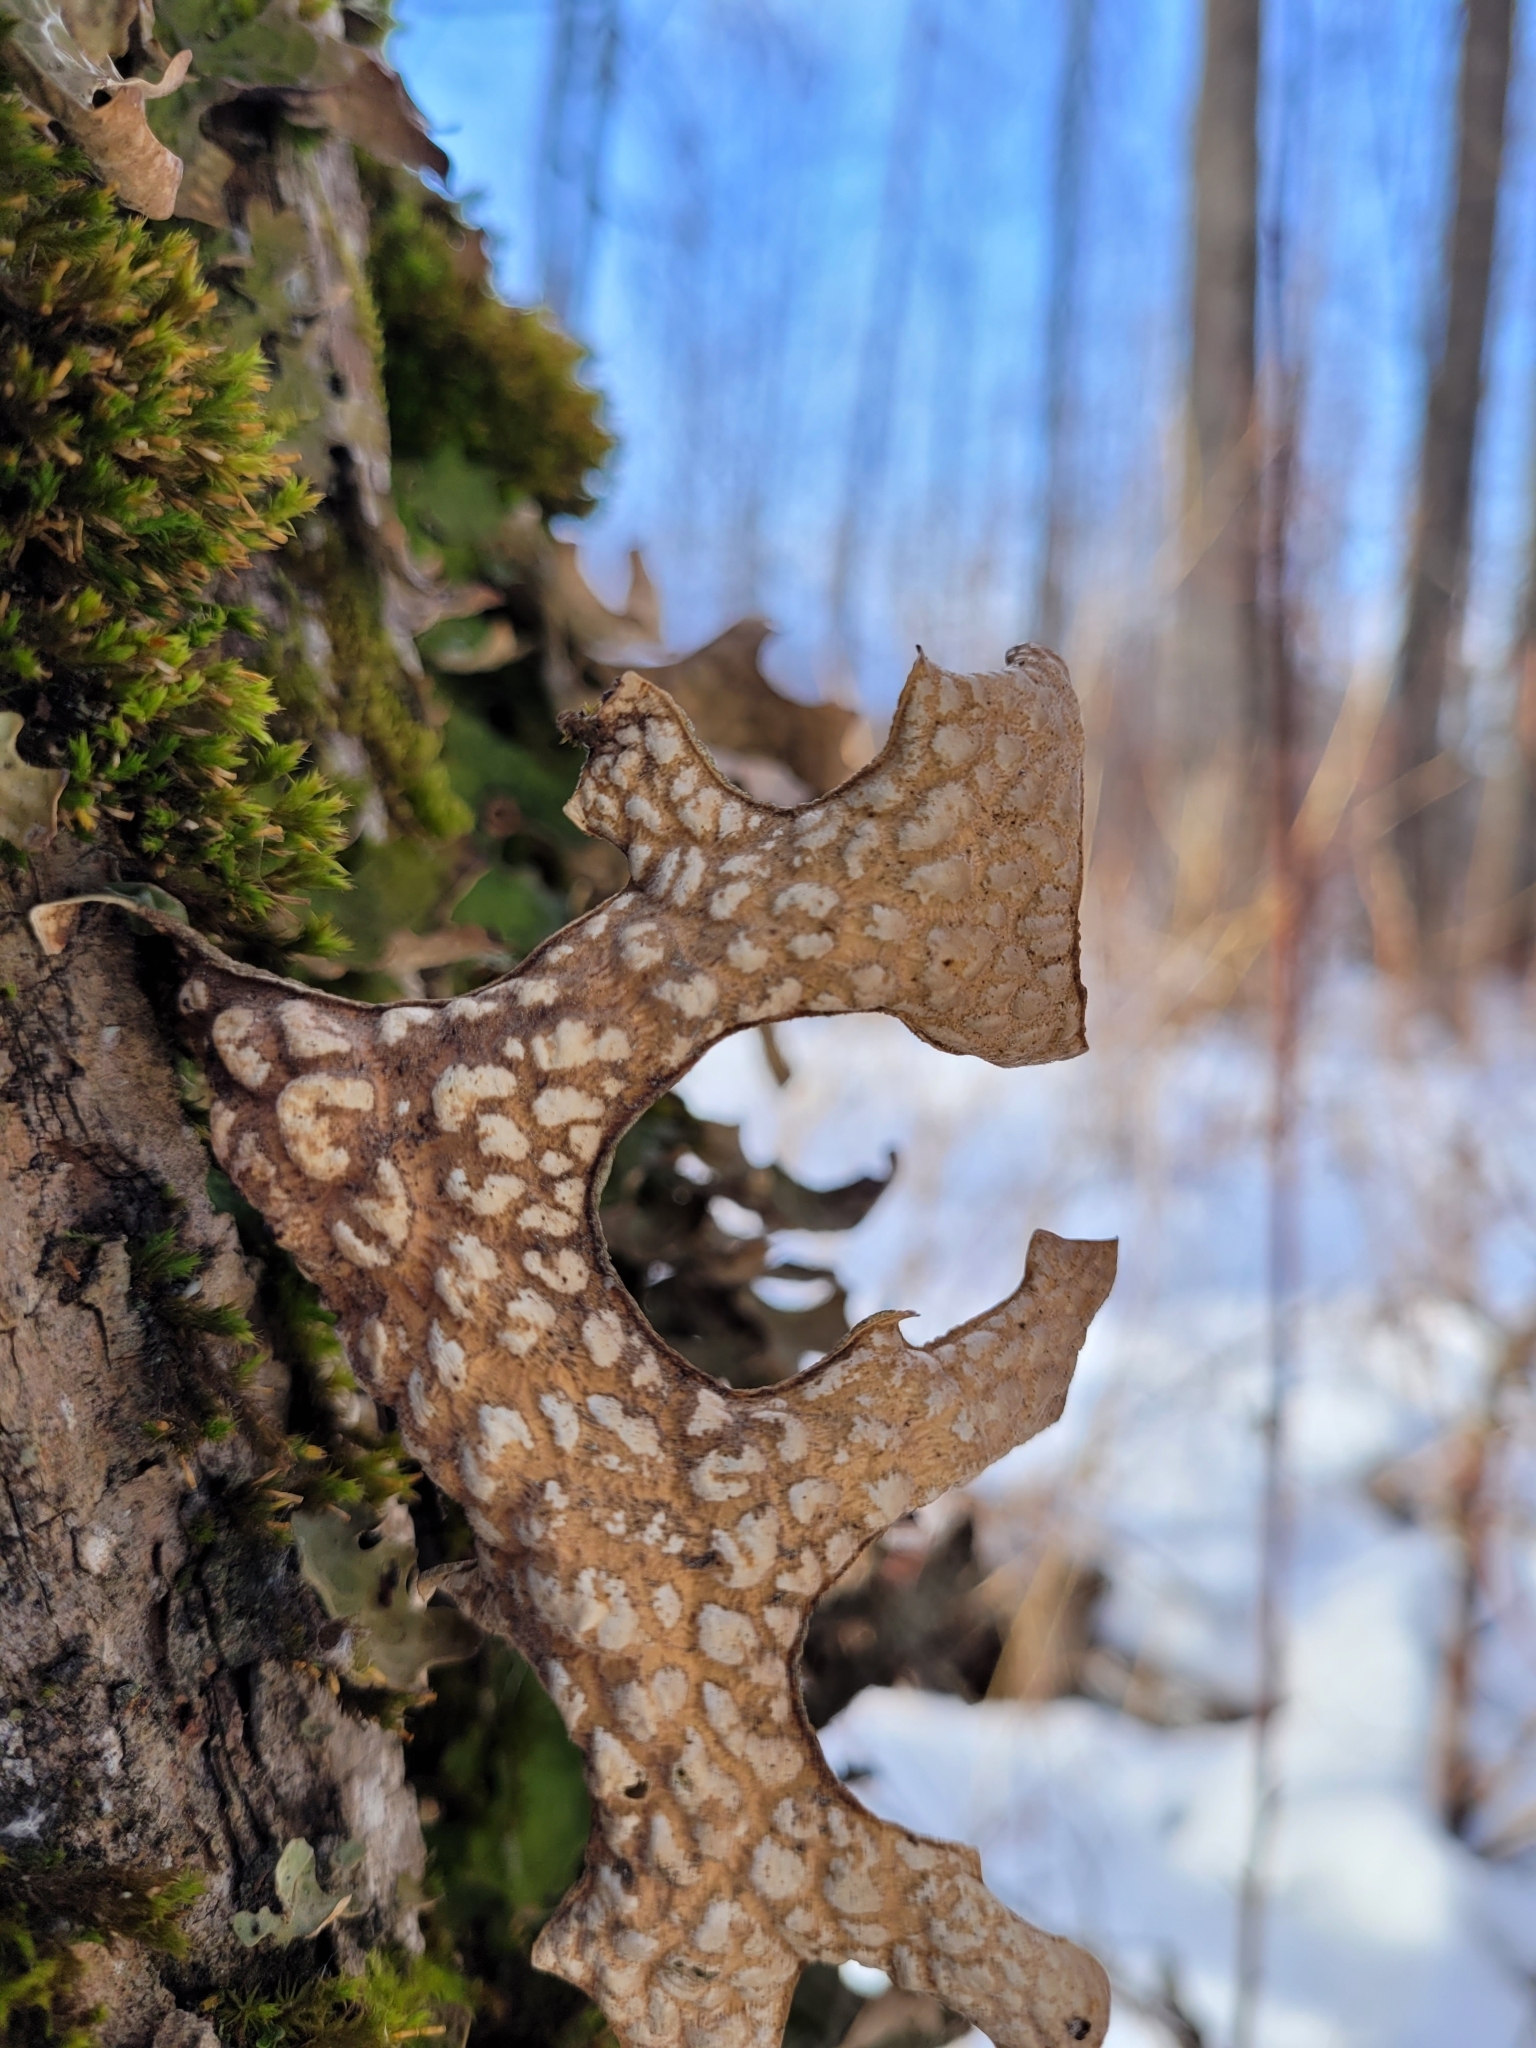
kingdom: Fungi
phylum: Ascomycota
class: Lecanoromycetes
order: Peltigerales
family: Lobariaceae
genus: Lobaria
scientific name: Lobaria pulmonaria
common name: Lungwort
